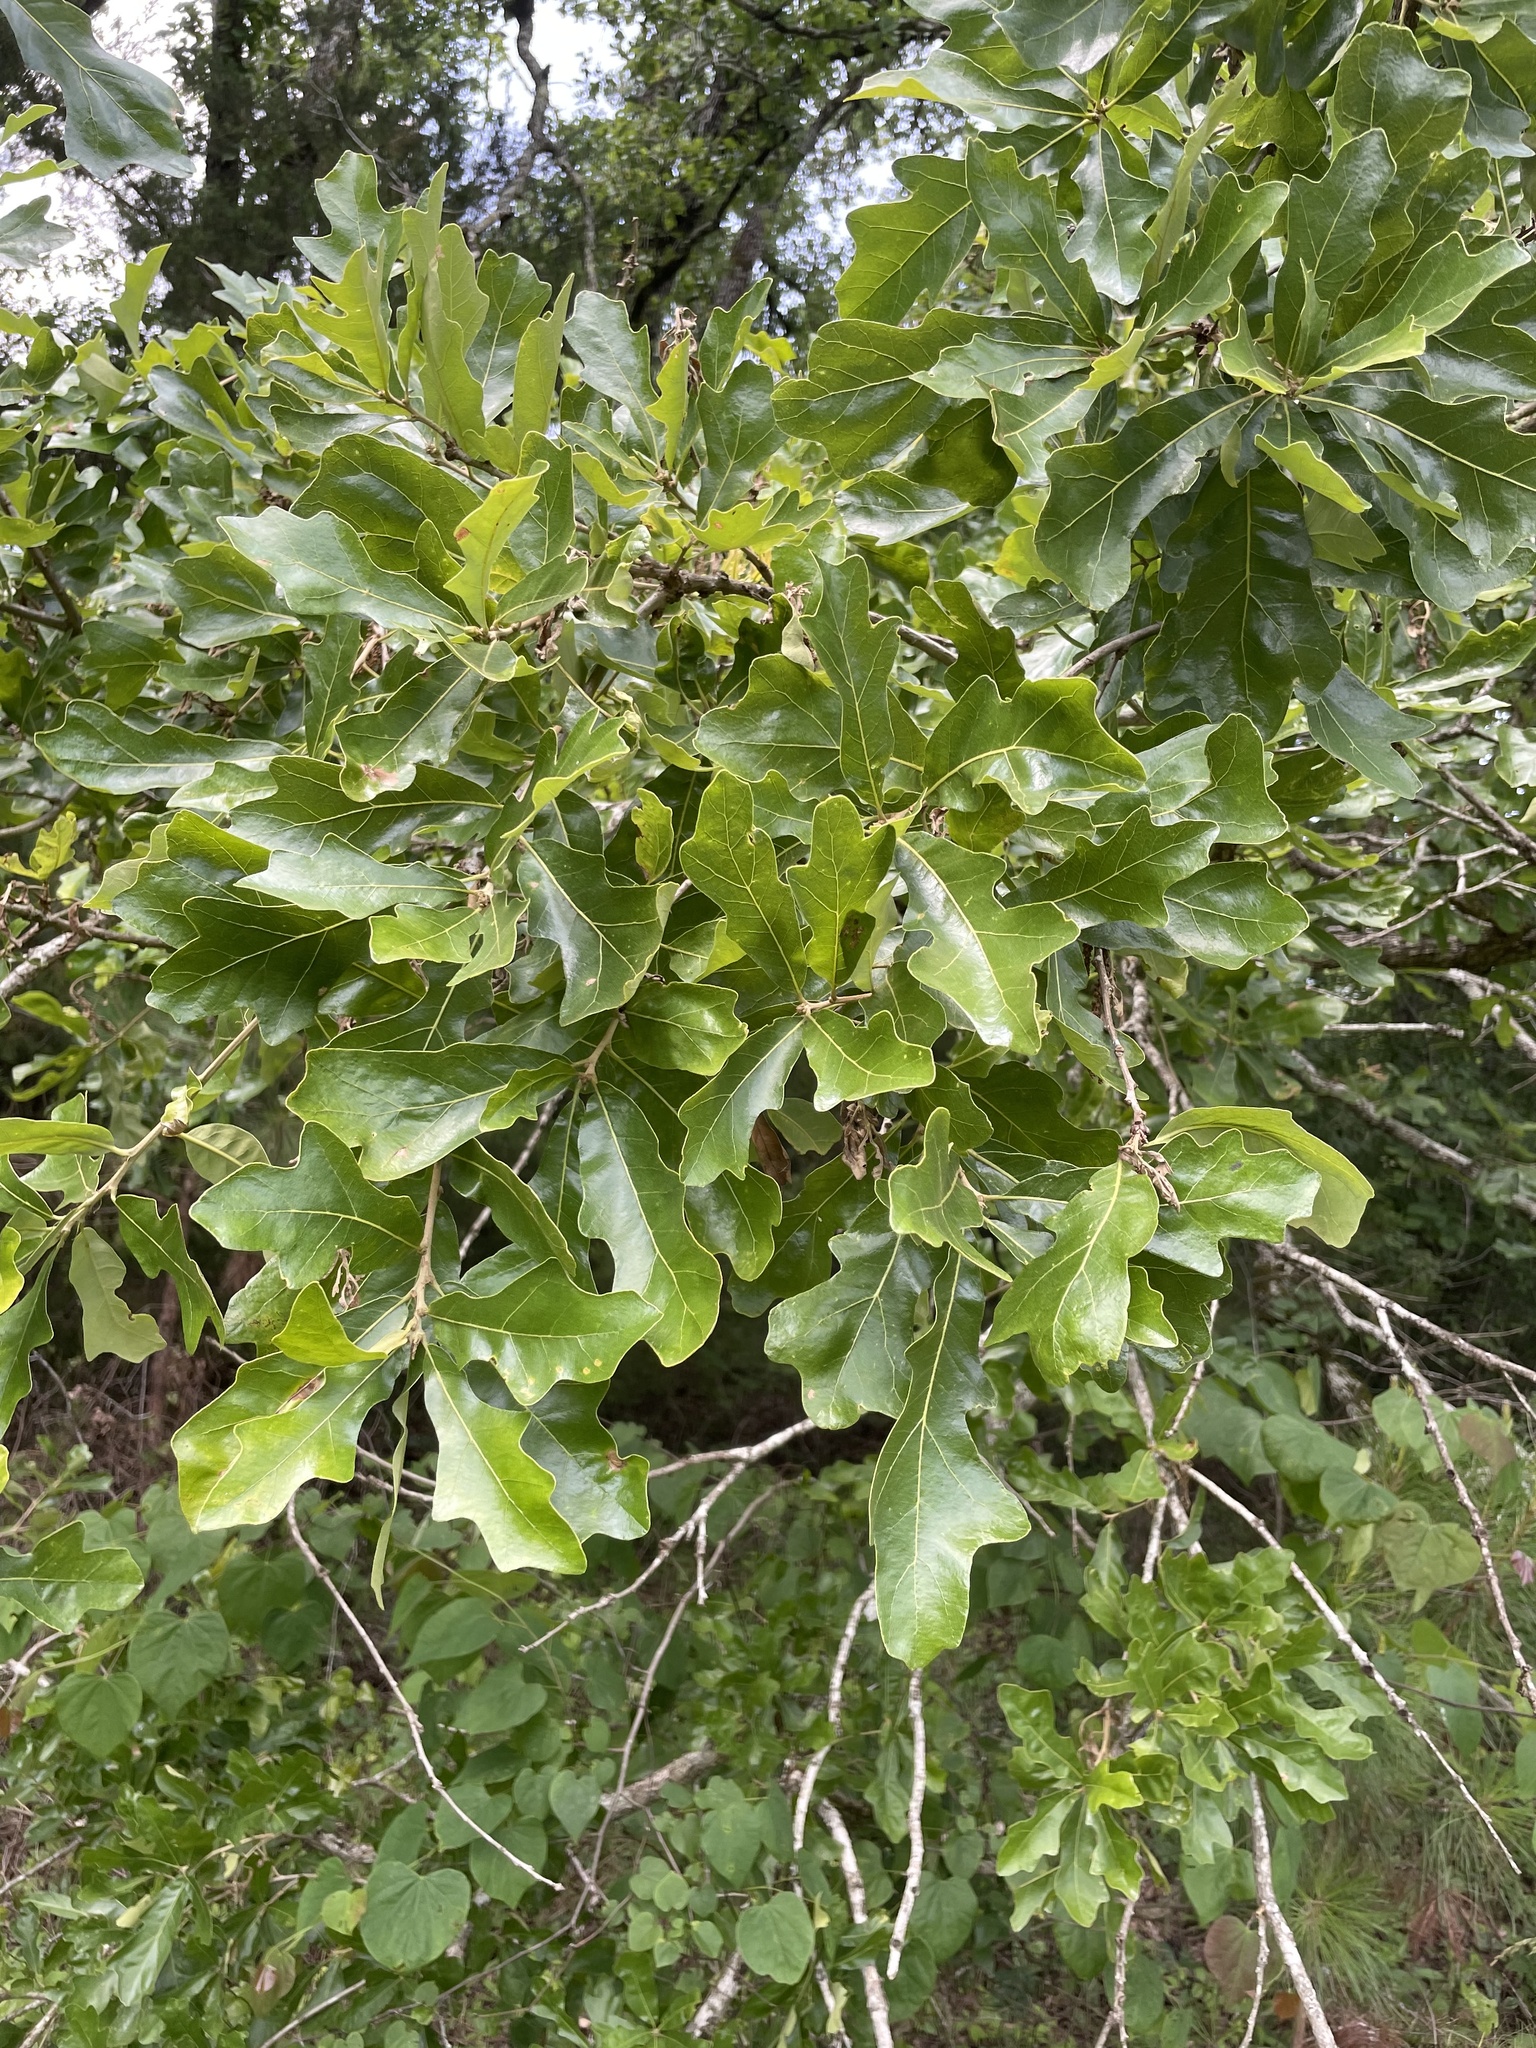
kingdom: Plantae
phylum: Tracheophyta
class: Magnoliopsida
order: Fagales
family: Fagaceae
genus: Quercus
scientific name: Quercus similis
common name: Delta post oak
